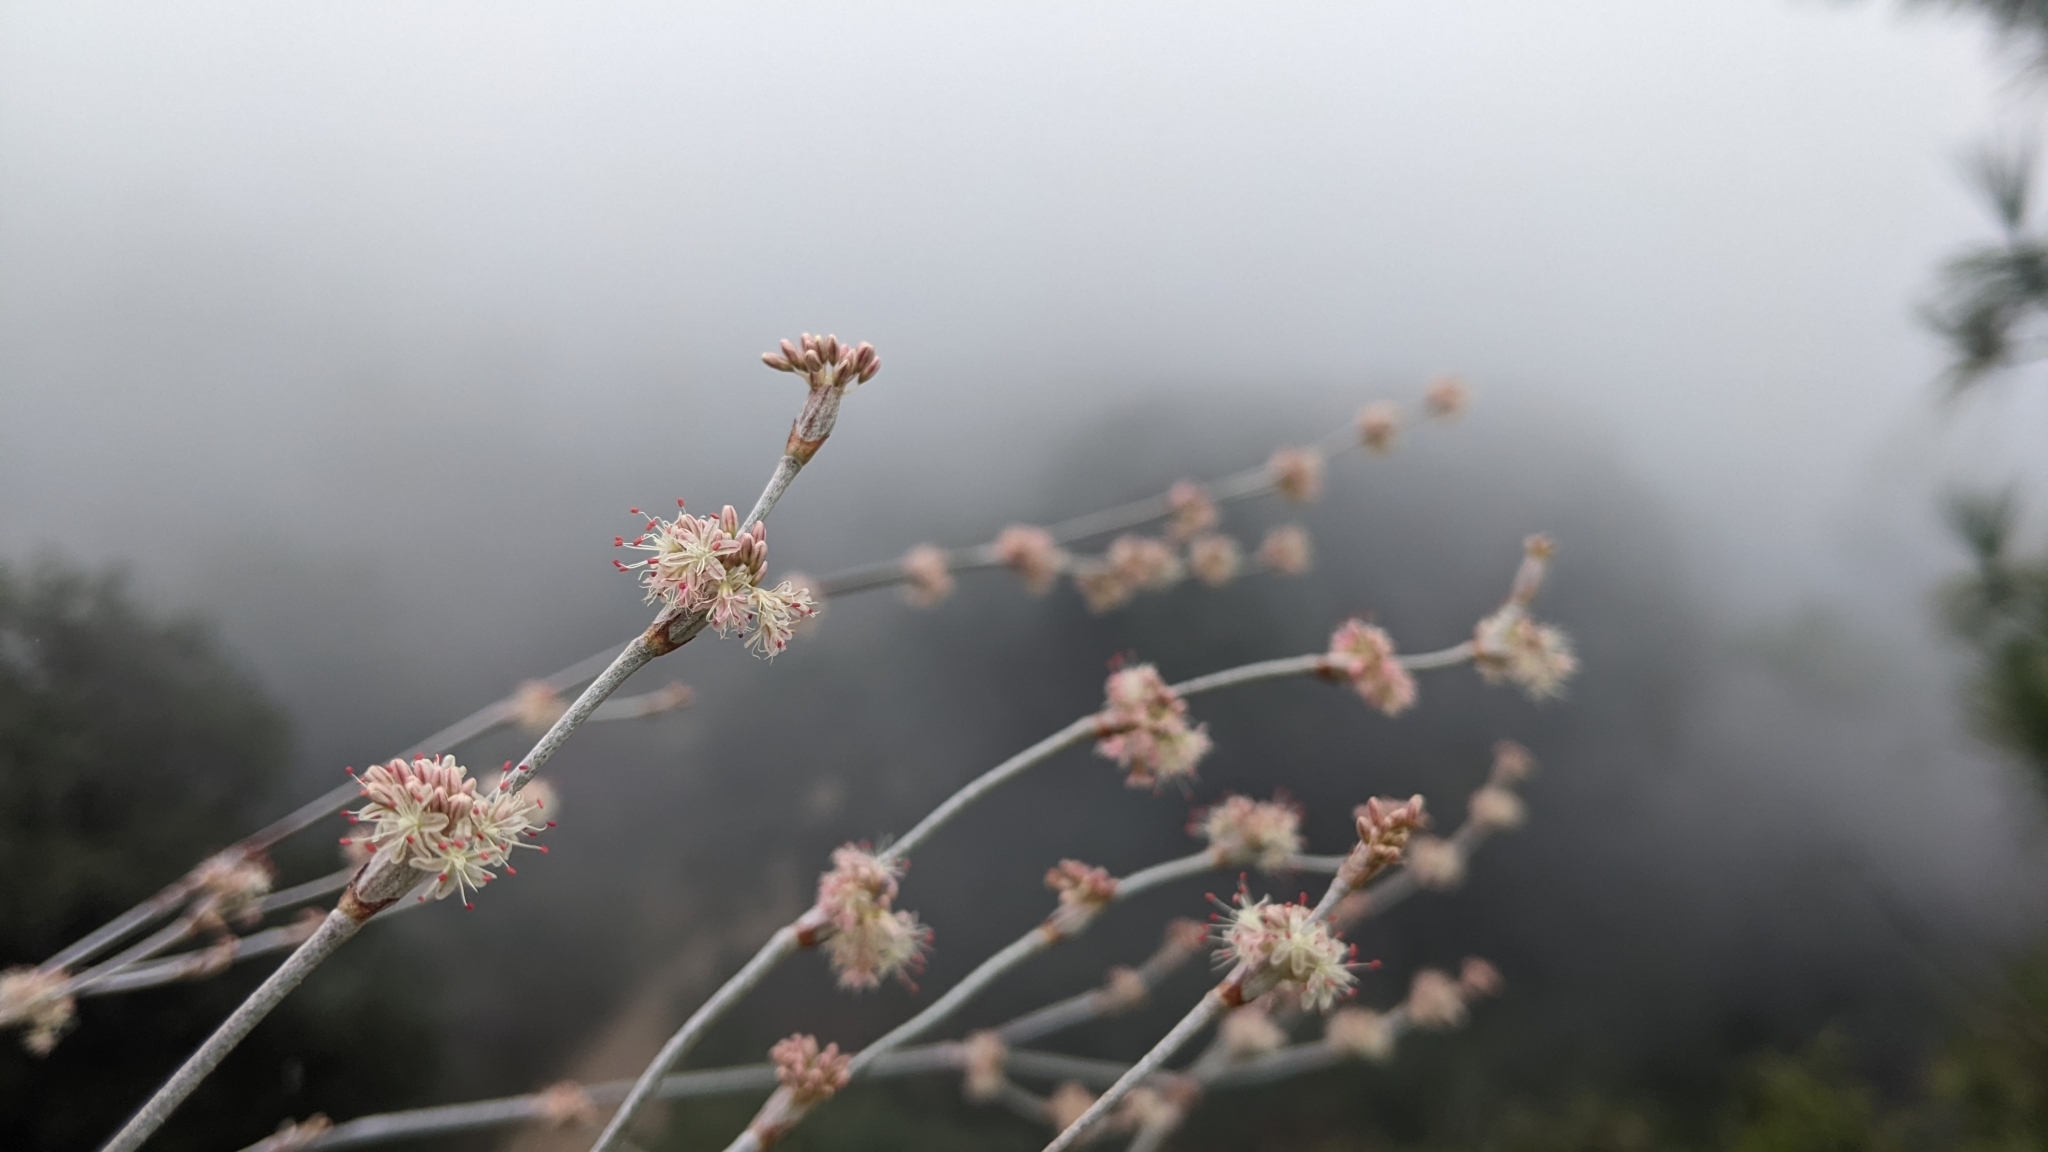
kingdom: Plantae
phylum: Tracheophyta
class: Magnoliopsida
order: Caryophyllales
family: Polygonaceae
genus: Eriogonum
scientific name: Eriogonum elongatum
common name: Long-stem wild buckwheat
